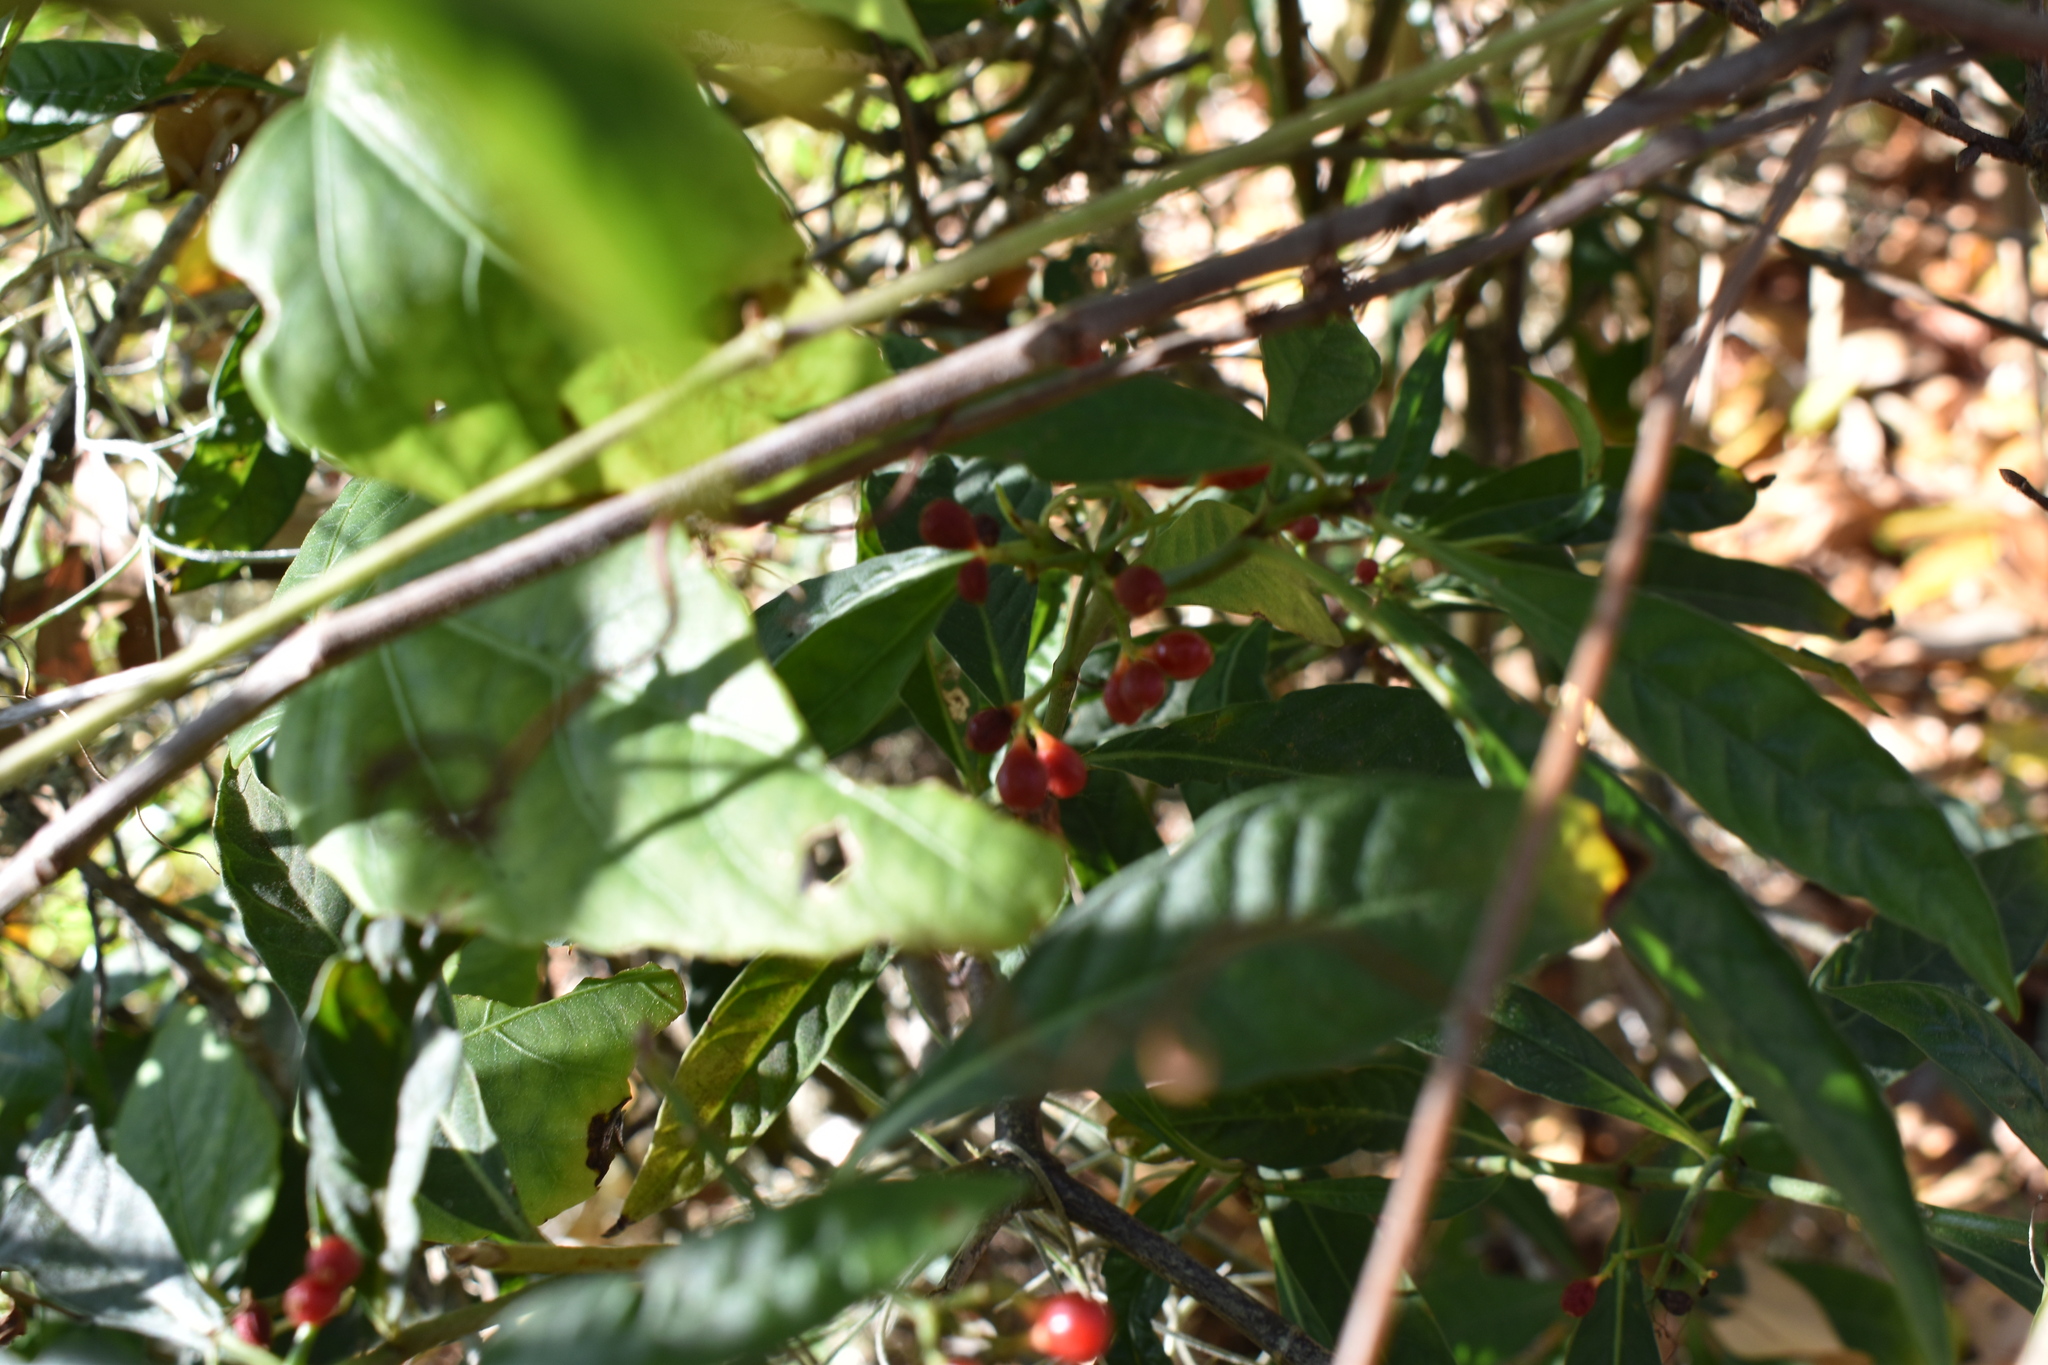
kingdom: Plantae
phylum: Tracheophyta
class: Magnoliopsida
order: Gentianales
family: Rubiaceae
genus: Psychotria
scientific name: Psychotria tenuifolia
